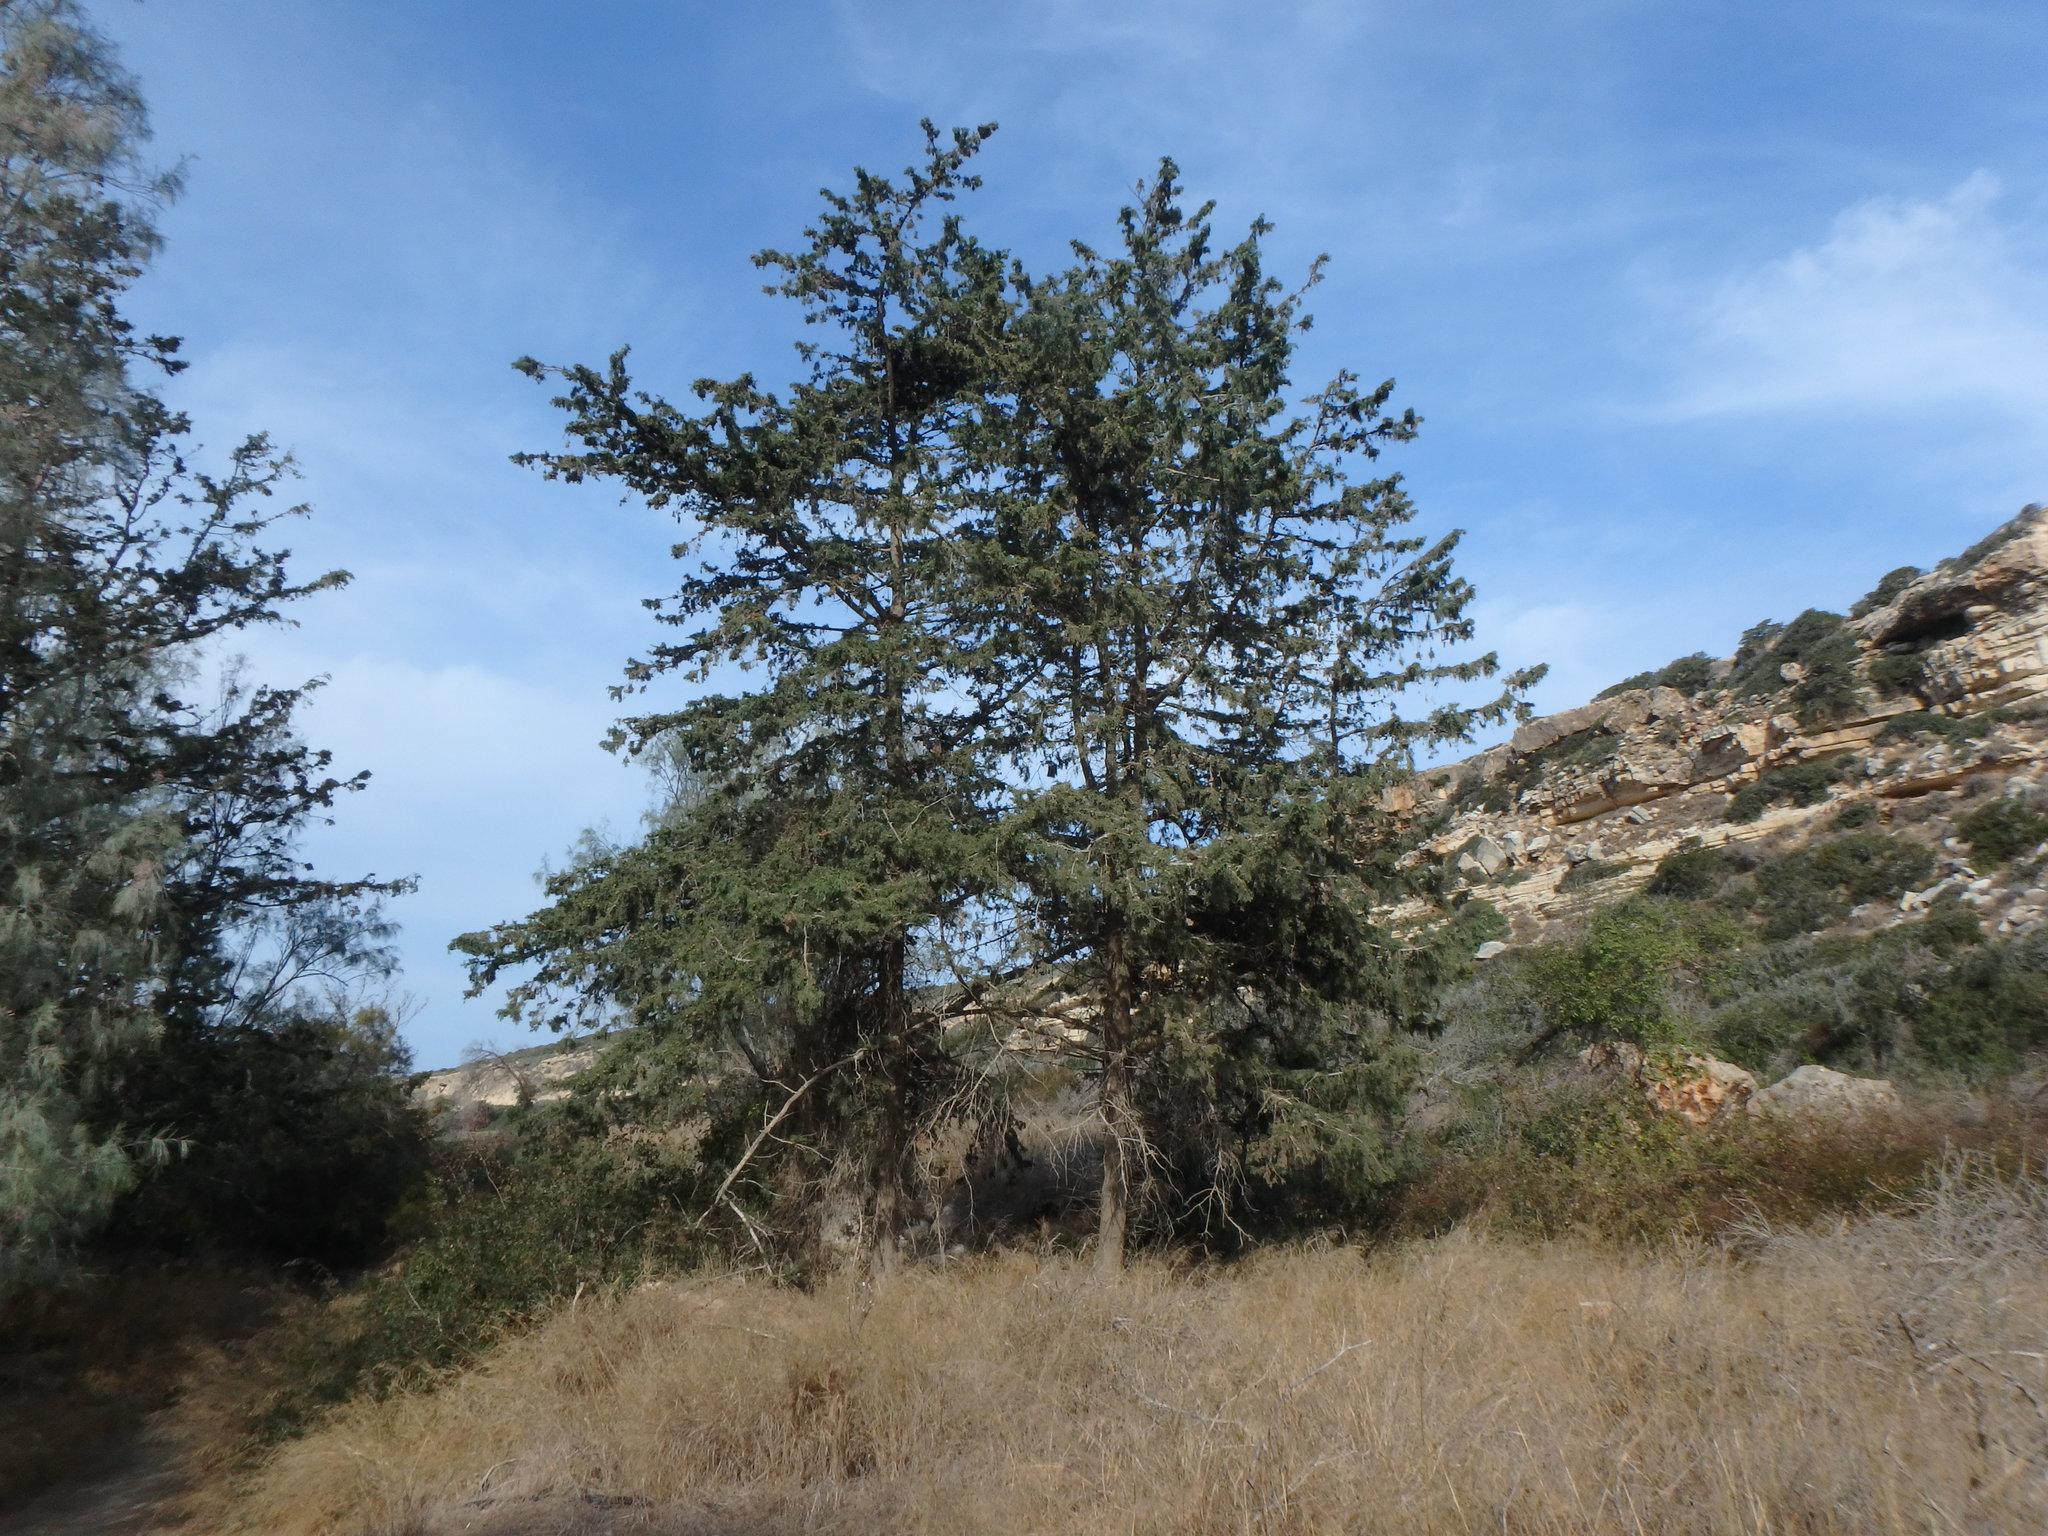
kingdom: Plantae
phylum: Tracheophyta
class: Pinopsida
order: Pinales
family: Cupressaceae
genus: Cupressus
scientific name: Cupressus sempervirens
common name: Italian cypress
